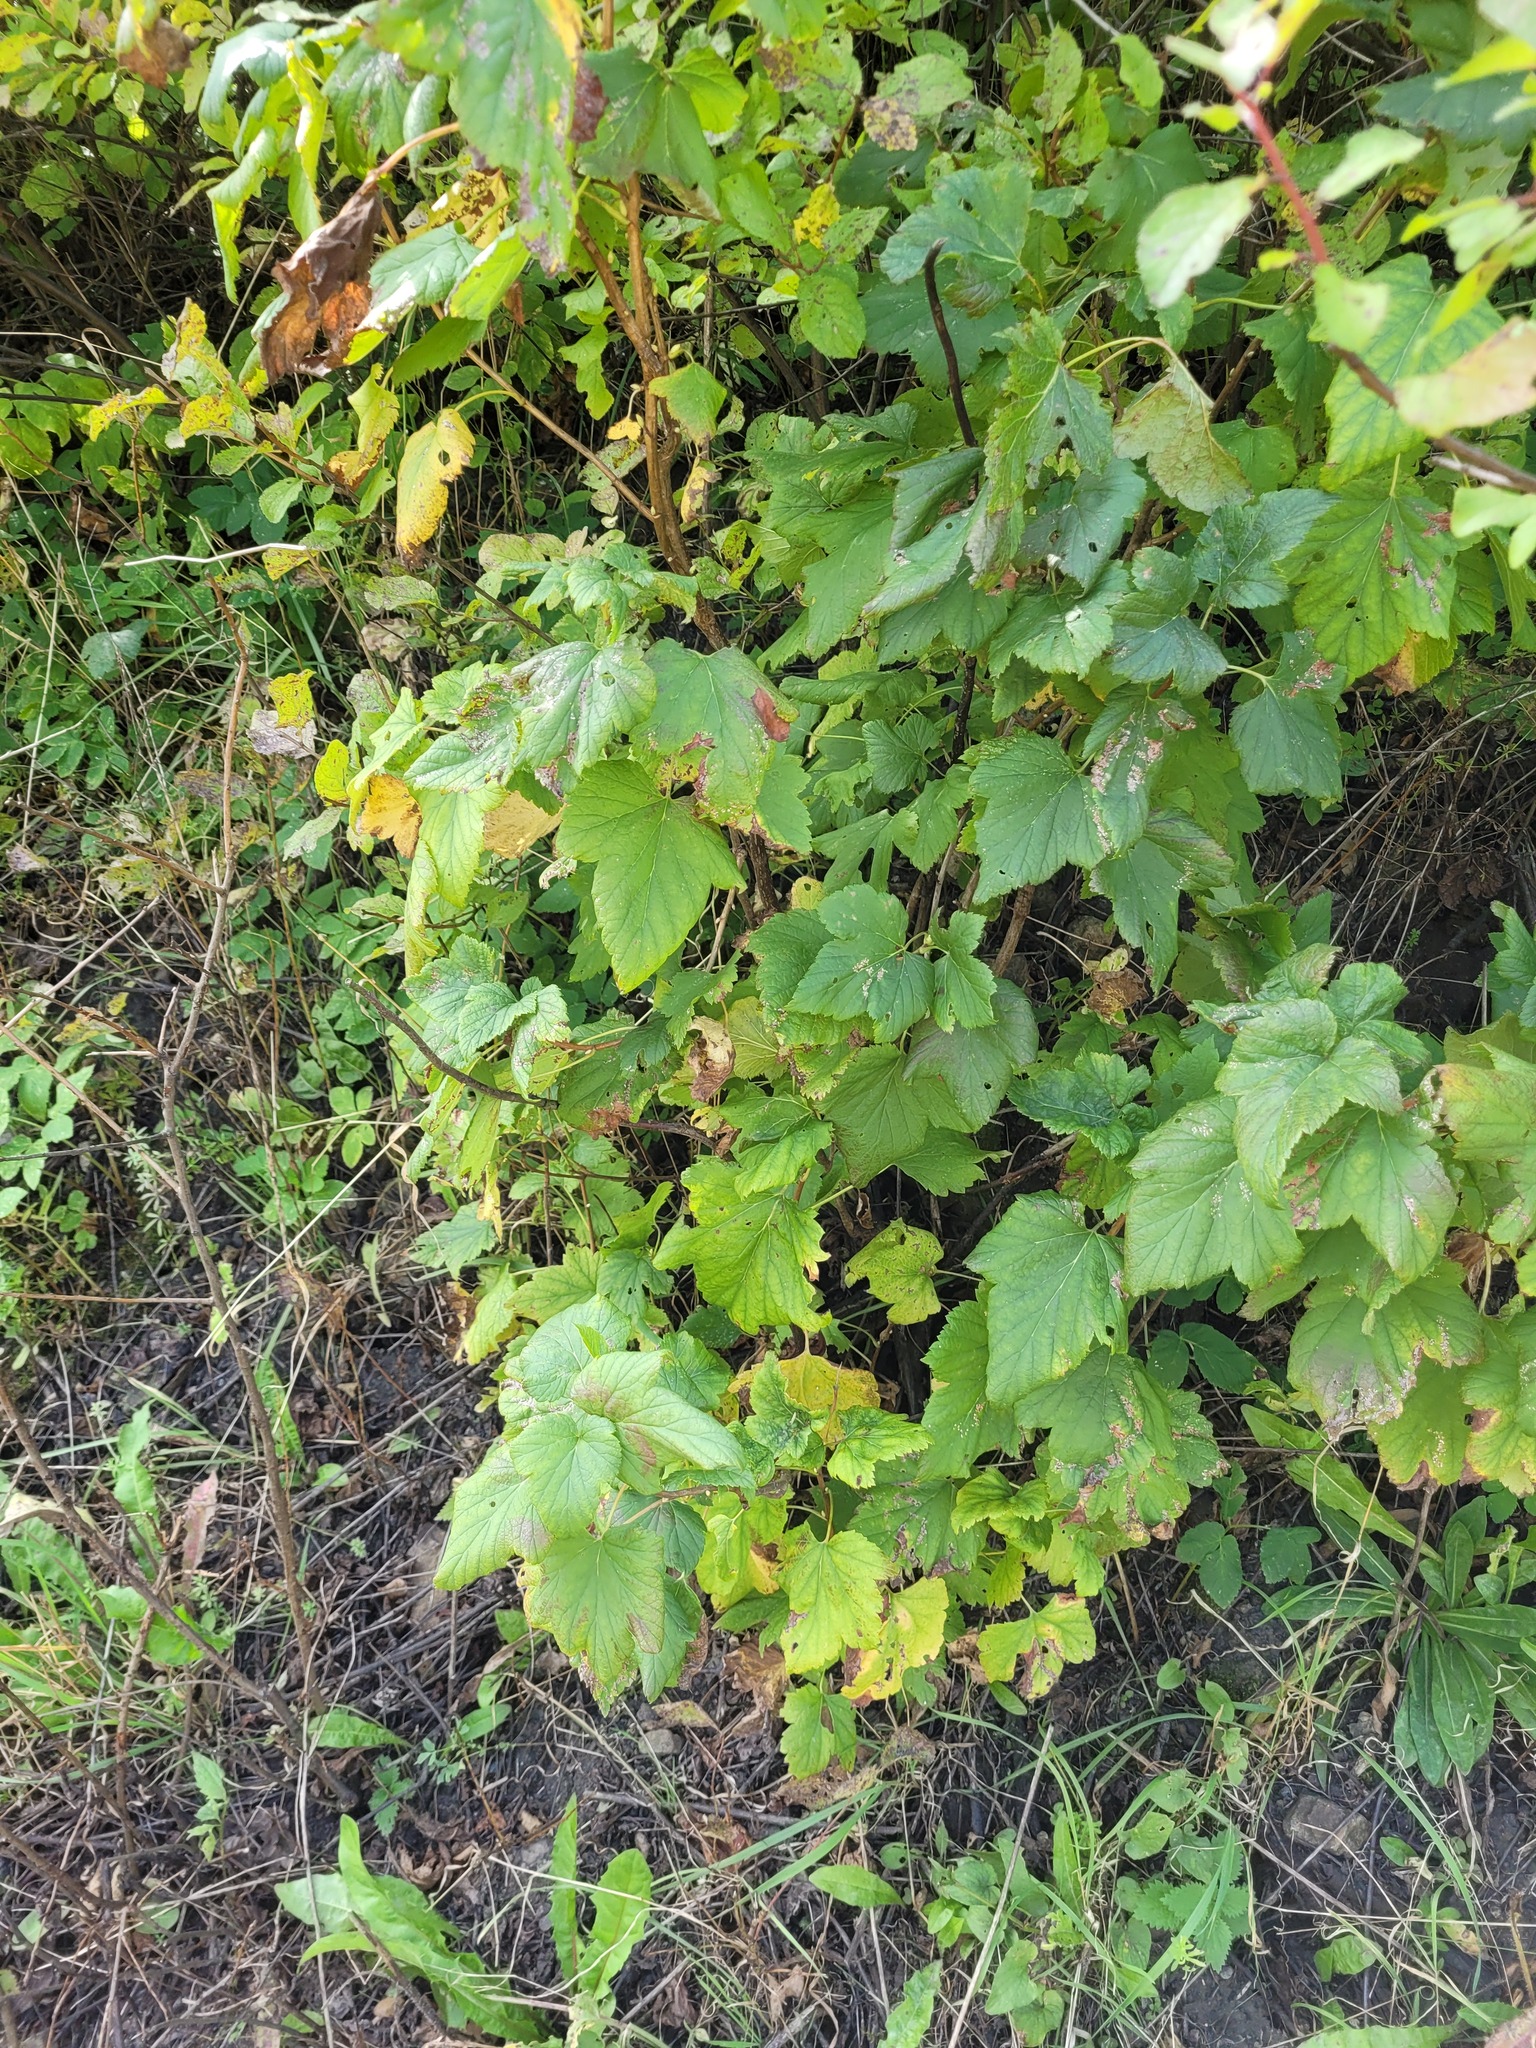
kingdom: Plantae
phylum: Tracheophyta
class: Magnoliopsida
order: Saxifragales
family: Grossulariaceae
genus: Ribes
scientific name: Ribes nigrum
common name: Black currant
